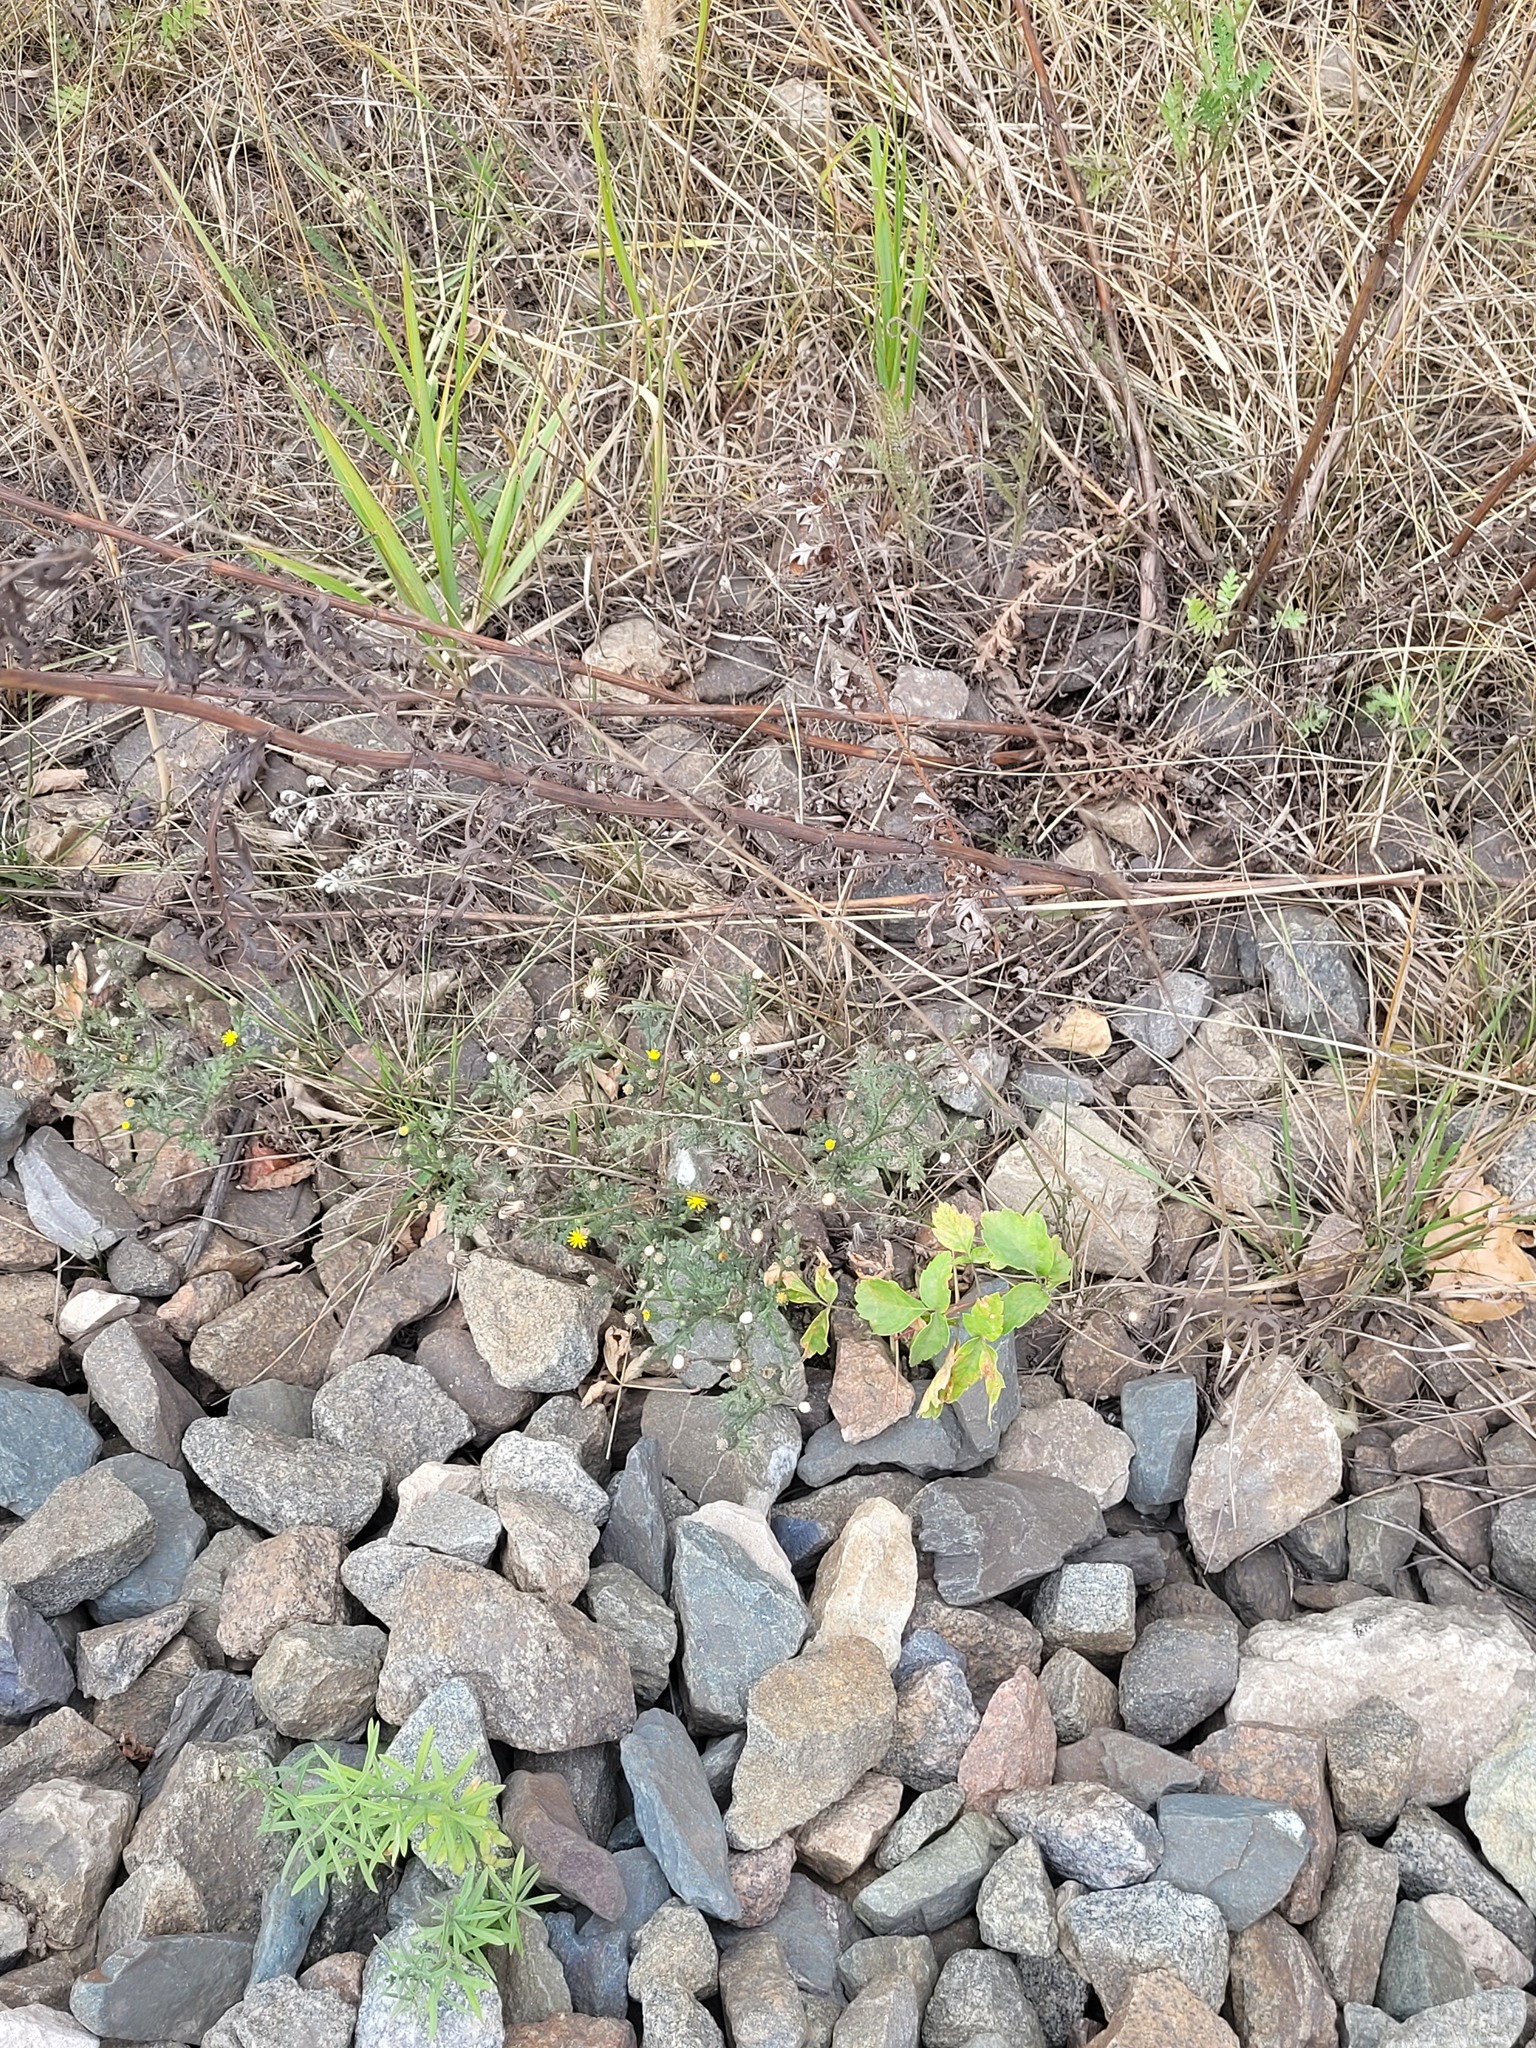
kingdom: Plantae
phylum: Tracheophyta
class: Magnoliopsida
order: Asterales
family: Asteraceae
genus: Senecio
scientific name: Senecio viscosus
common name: Sticky groundsel
